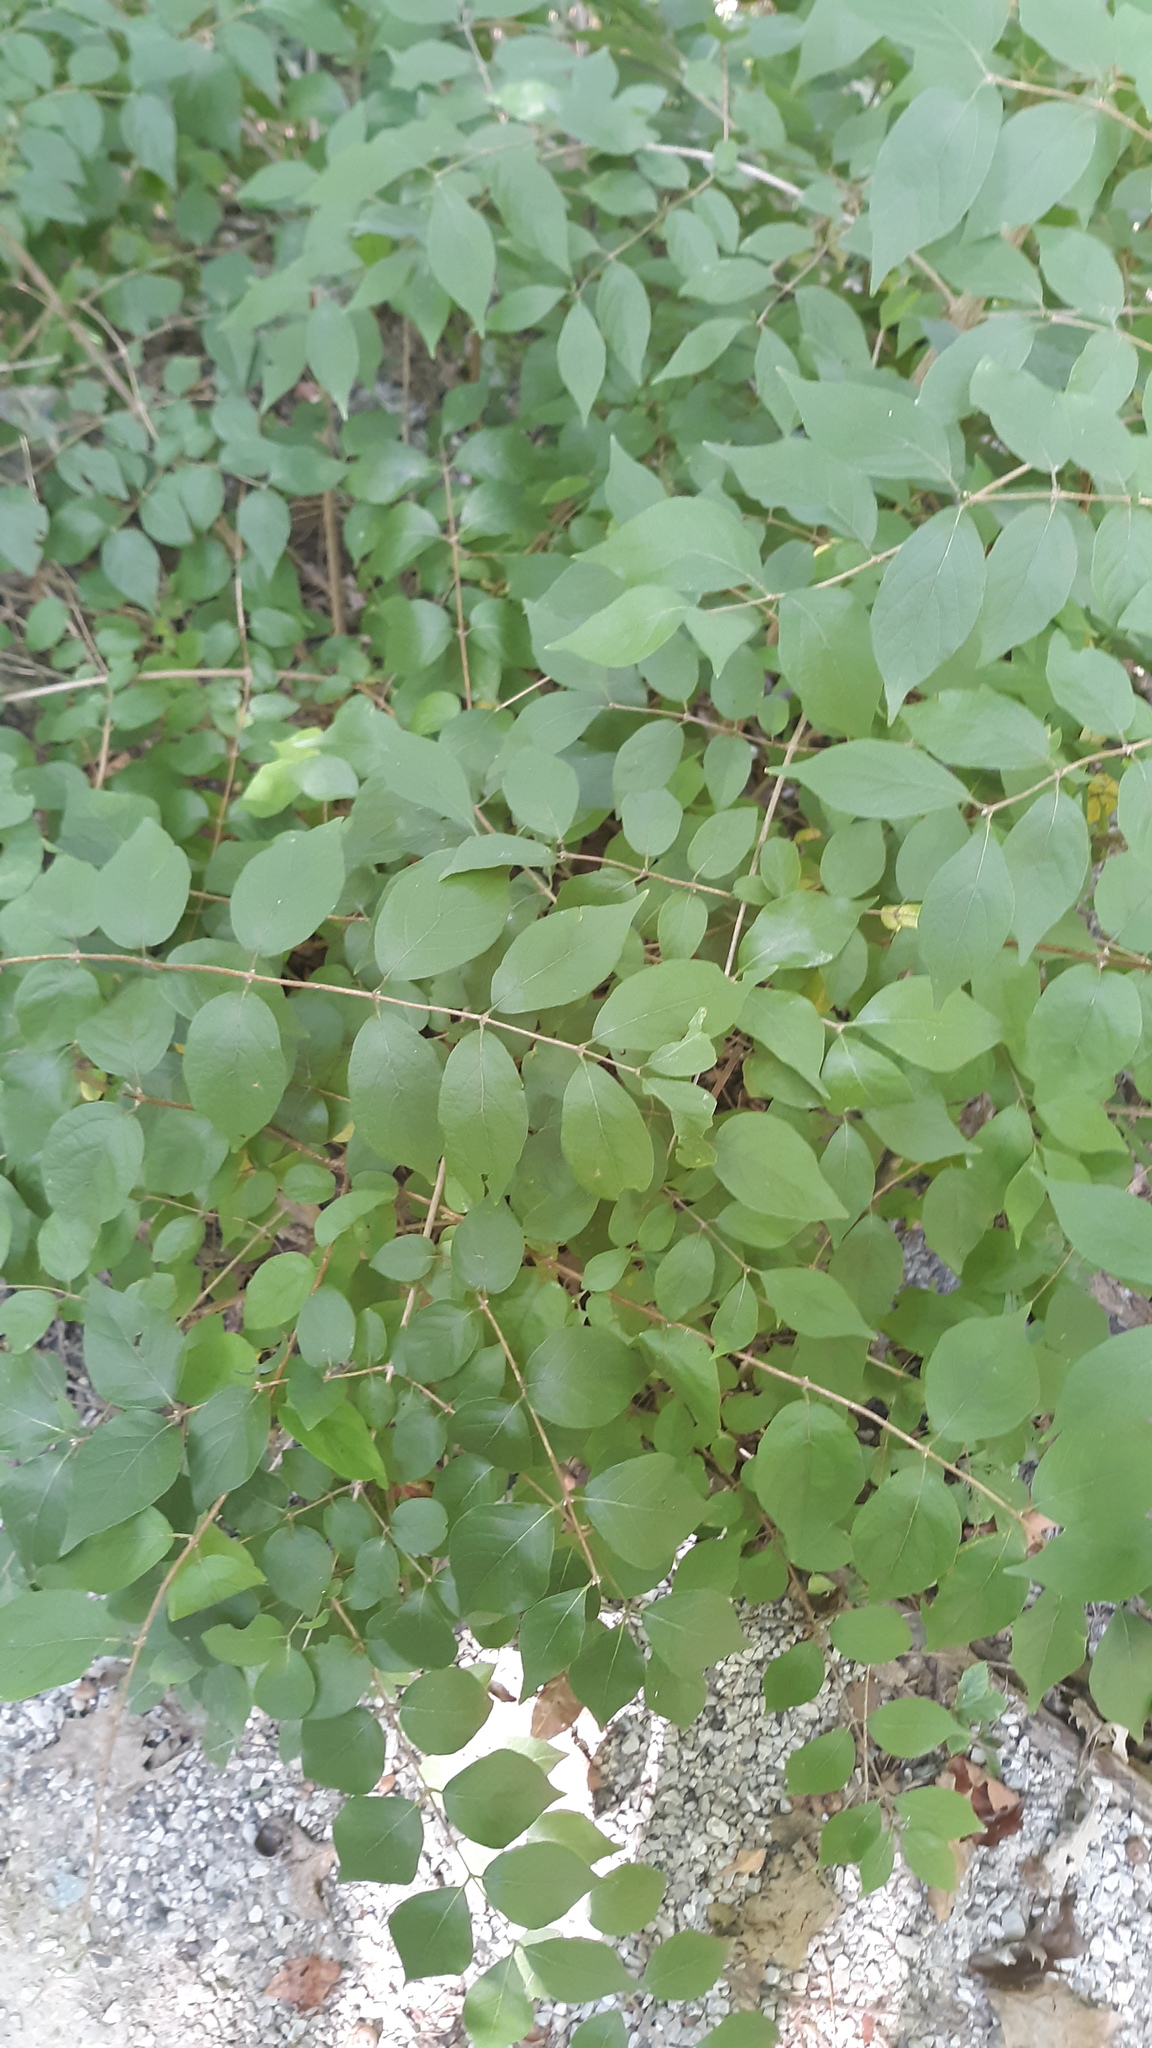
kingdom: Plantae
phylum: Tracheophyta
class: Magnoliopsida
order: Dipsacales
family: Caprifoliaceae
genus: Lonicera
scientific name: Lonicera maackii
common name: Amur honeysuckle
